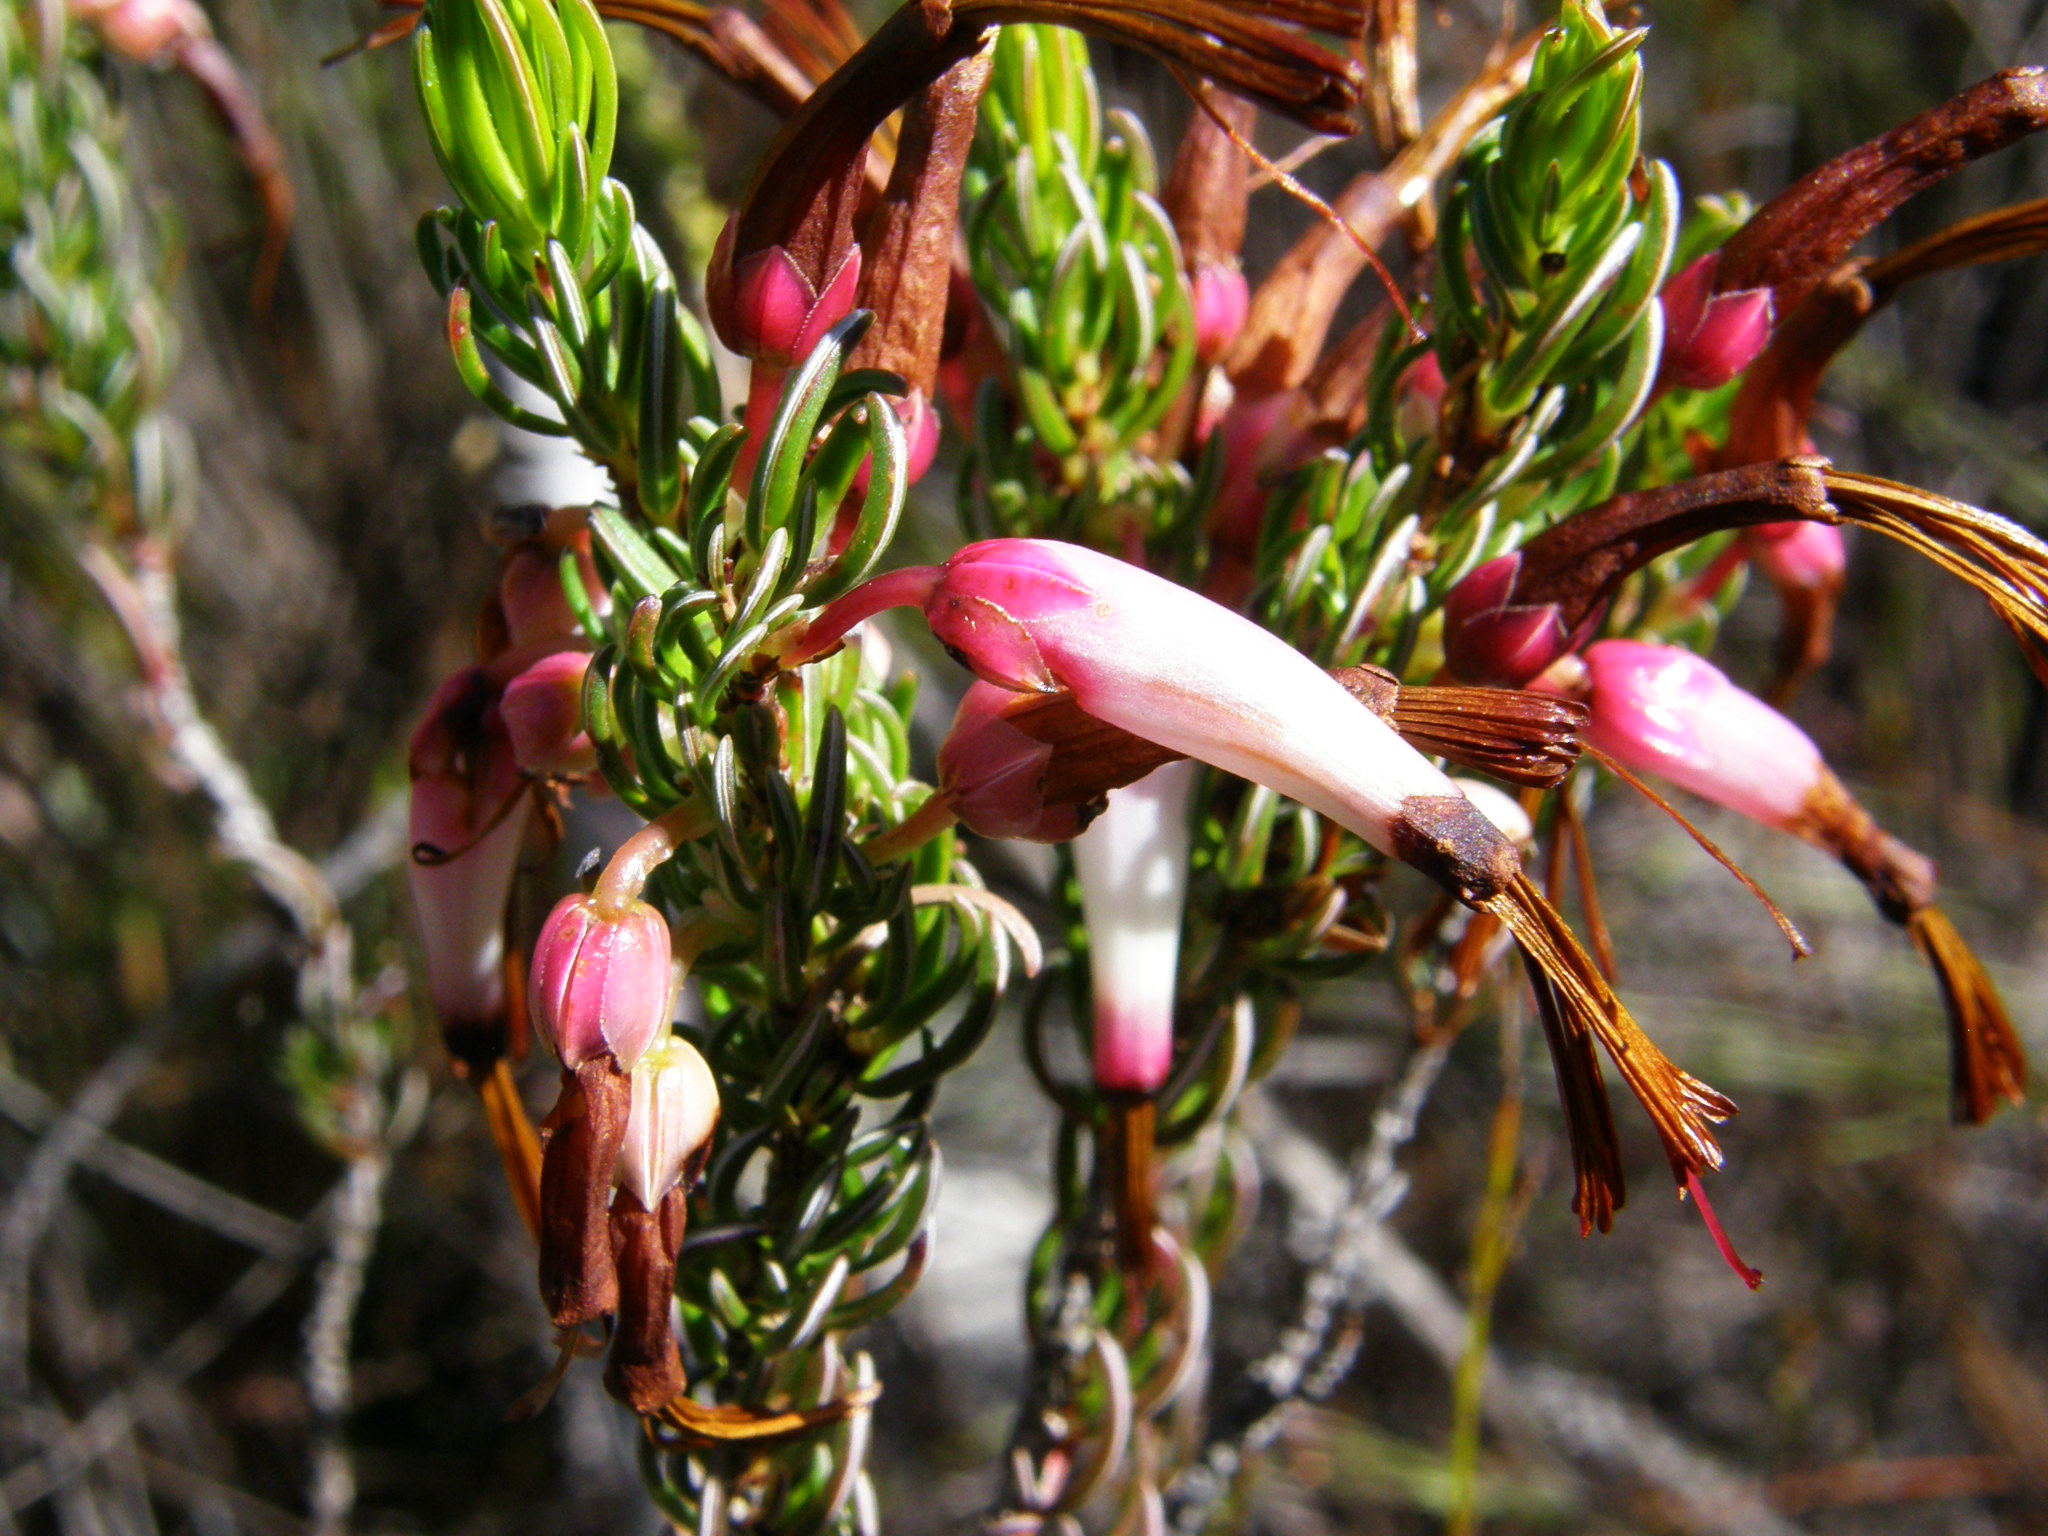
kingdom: Plantae
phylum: Tracheophyta
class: Magnoliopsida
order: Ericales
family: Ericaceae
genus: Erica
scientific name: Erica plukenetii
